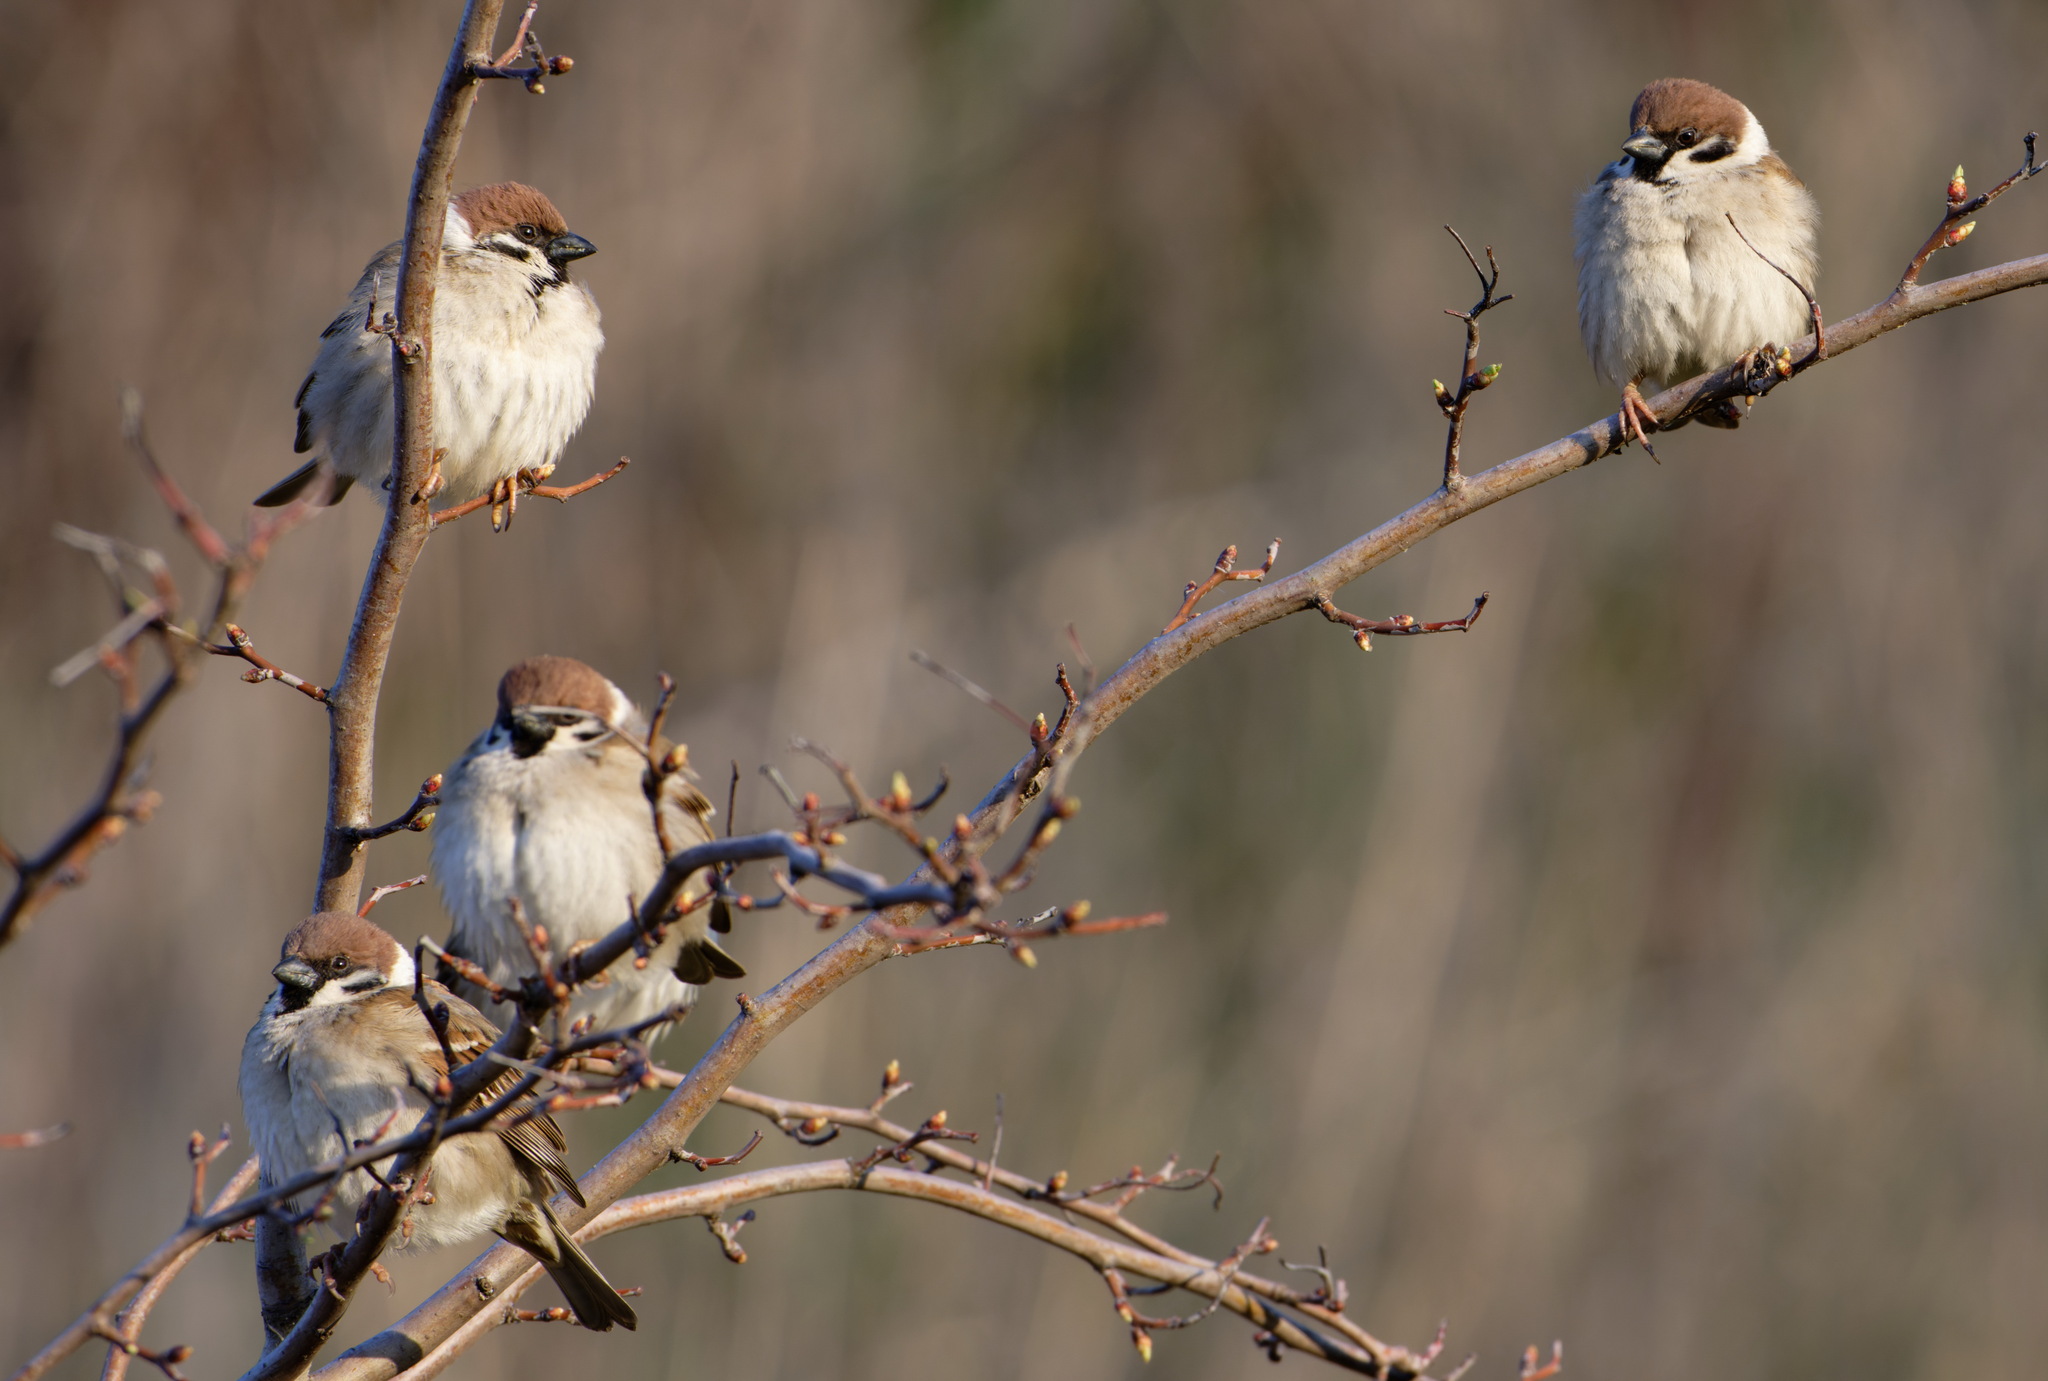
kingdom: Animalia
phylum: Chordata
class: Aves
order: Passeriformes
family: Passeridae
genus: Passer
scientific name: Passer montanus
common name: Eurasian tree sparrow
